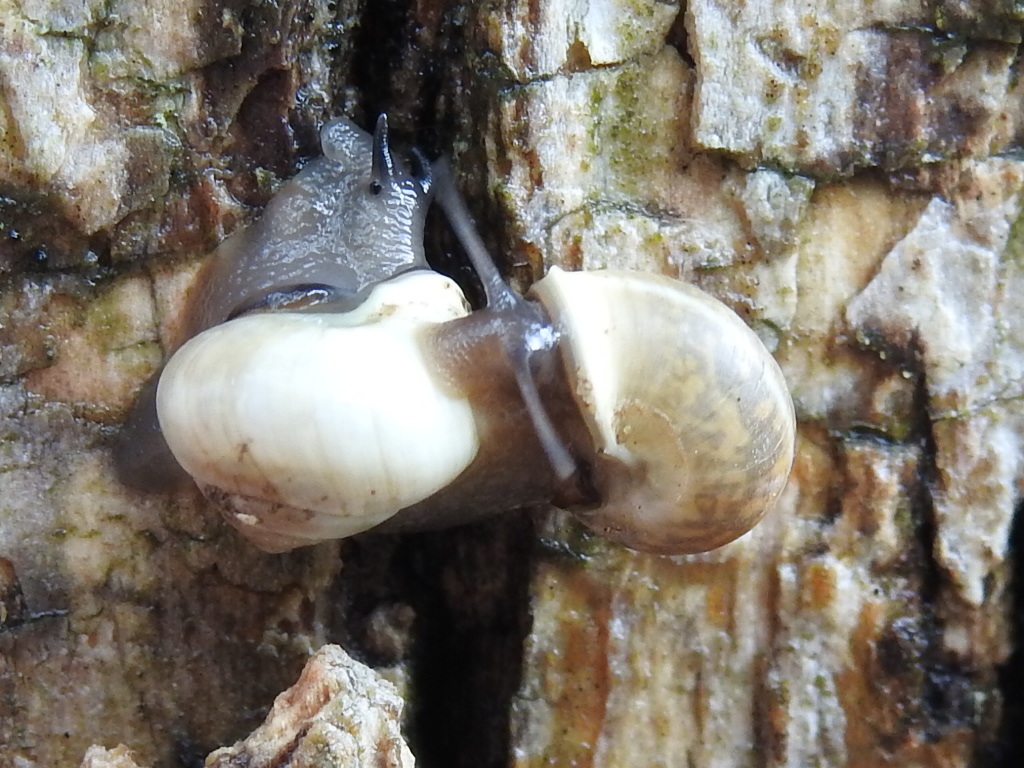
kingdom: Animalia
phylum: Mollusca
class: Gastropoda
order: Cycloneritida
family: Helicinidae
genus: Helicina
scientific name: Helicina orbiculata
